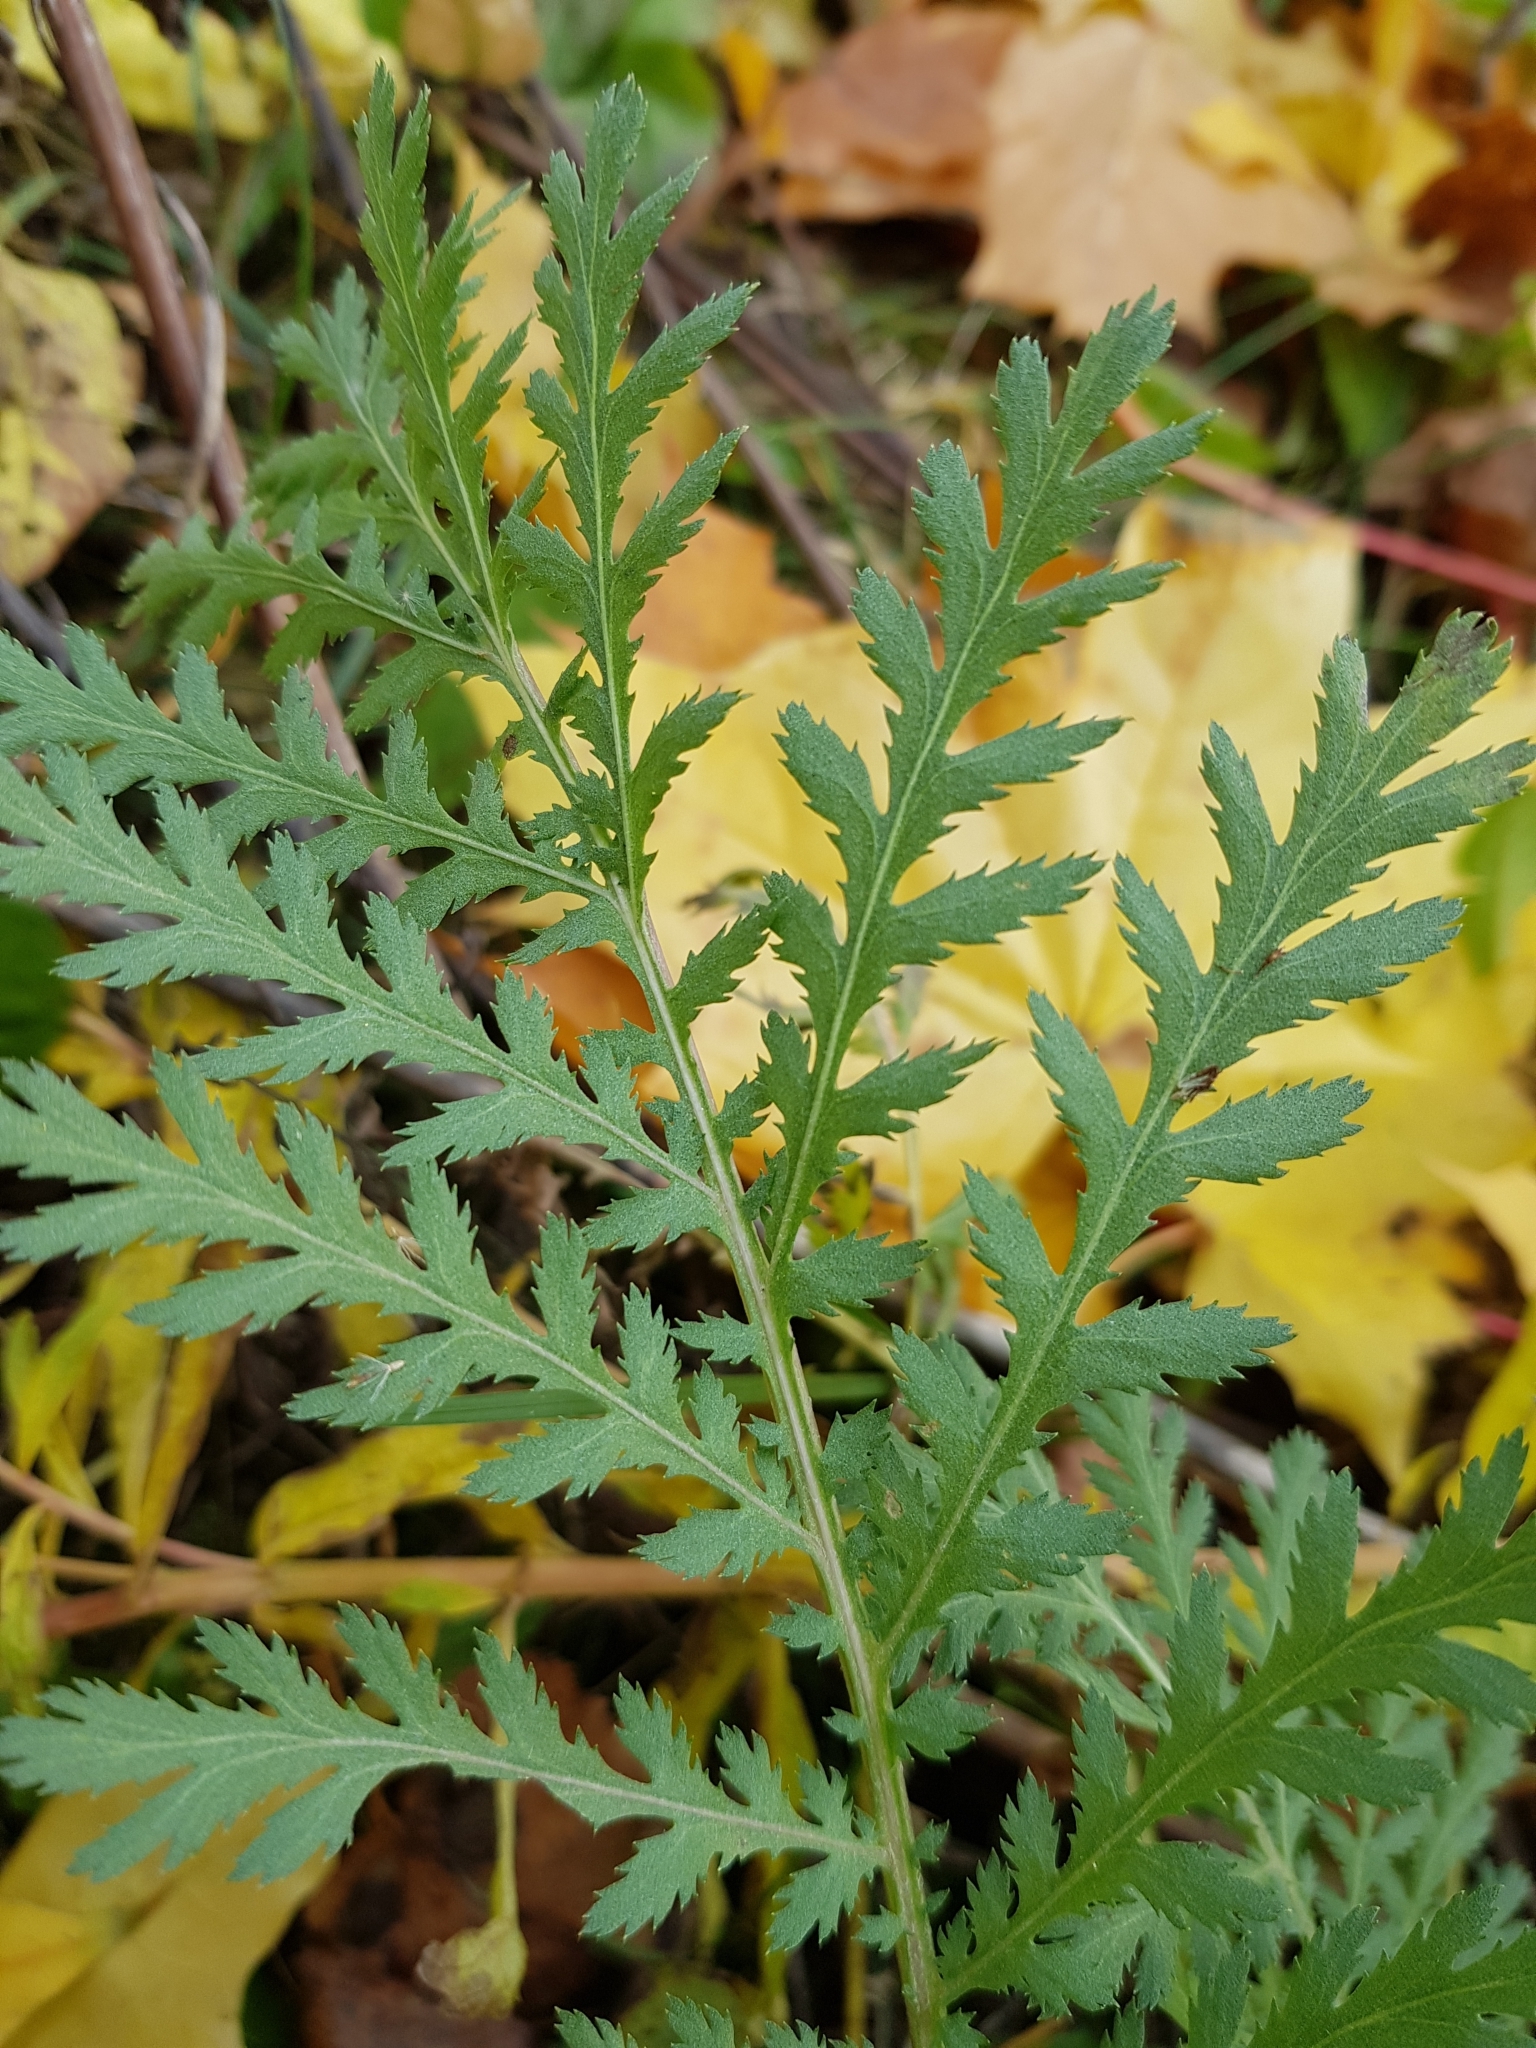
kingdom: Plantae
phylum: Tracheophyta
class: Magnoliopsida
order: Asterales
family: Asteraceae
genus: Tanacetum
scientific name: Tanacetum vulgare
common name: Common tansy
